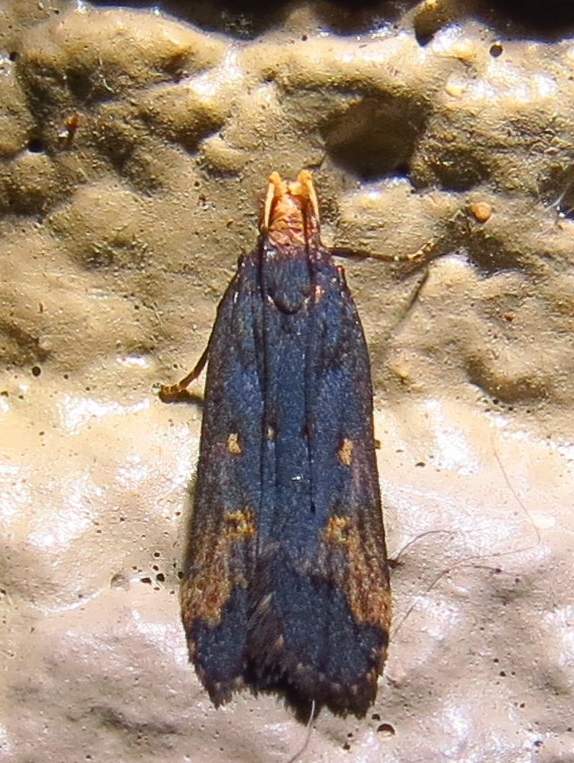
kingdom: Animalia
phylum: Arthropoda
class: Insecta
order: Lepidoptera
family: Gelechiidae
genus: Dichomeris
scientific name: Dichomeris offula
